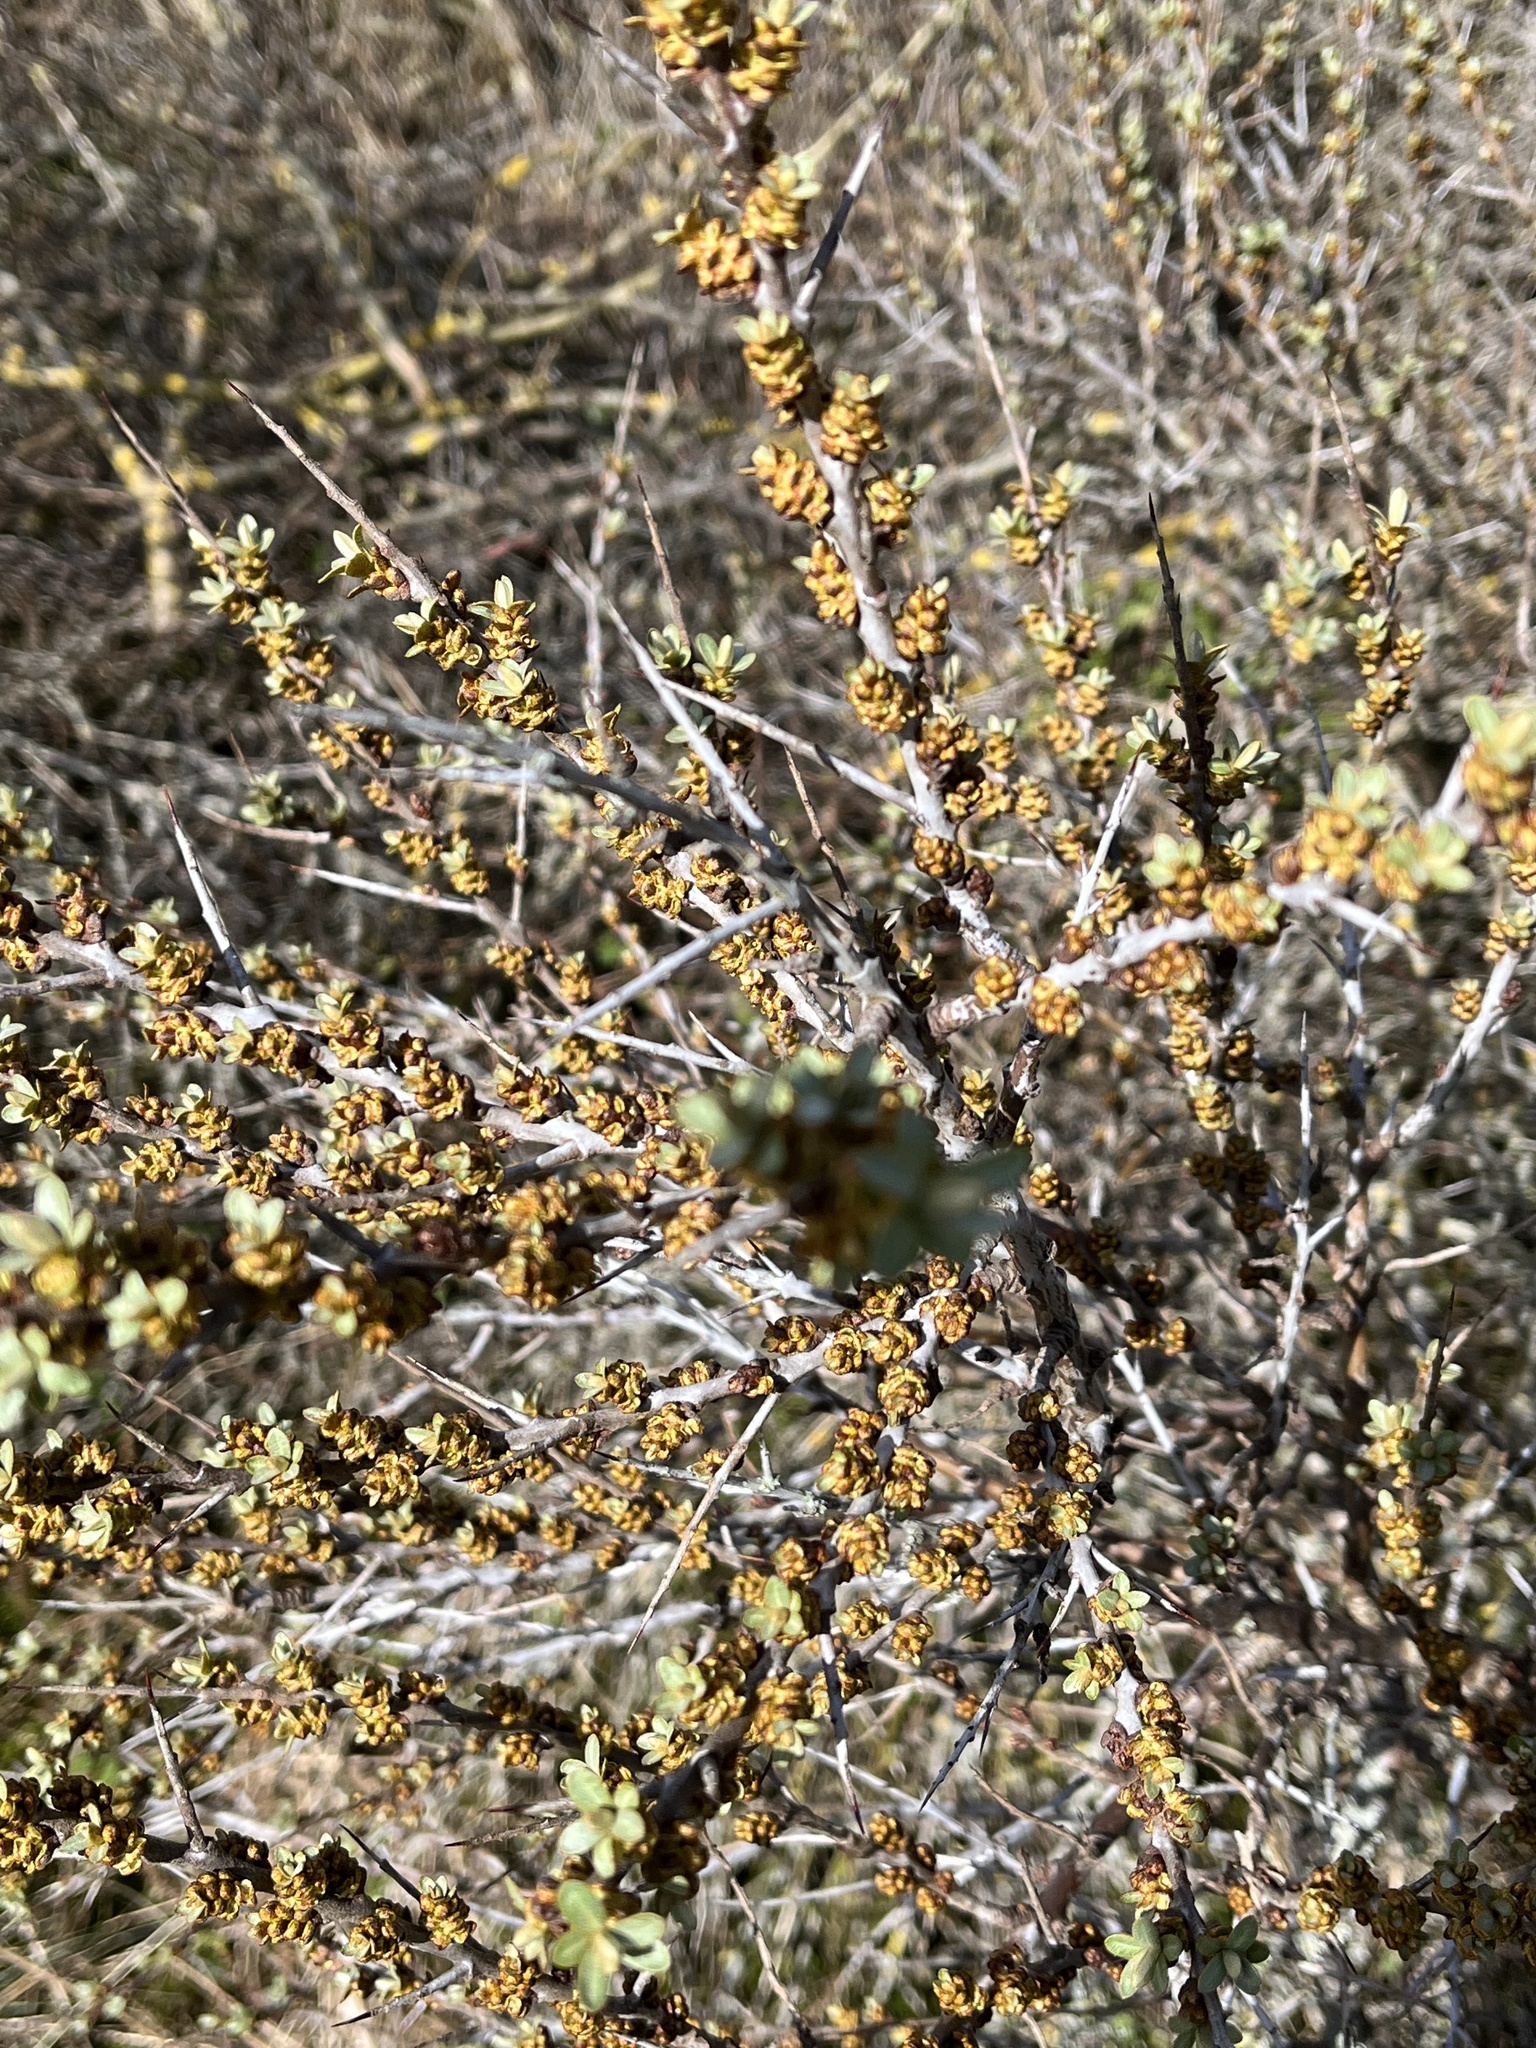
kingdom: Plantae
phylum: Tracheophyta
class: Magnoliopsida
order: Rosales
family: Elaeagnaceae
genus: Hippophae
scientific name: Hippophae rhamnoides
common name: Sea-buckthorn
